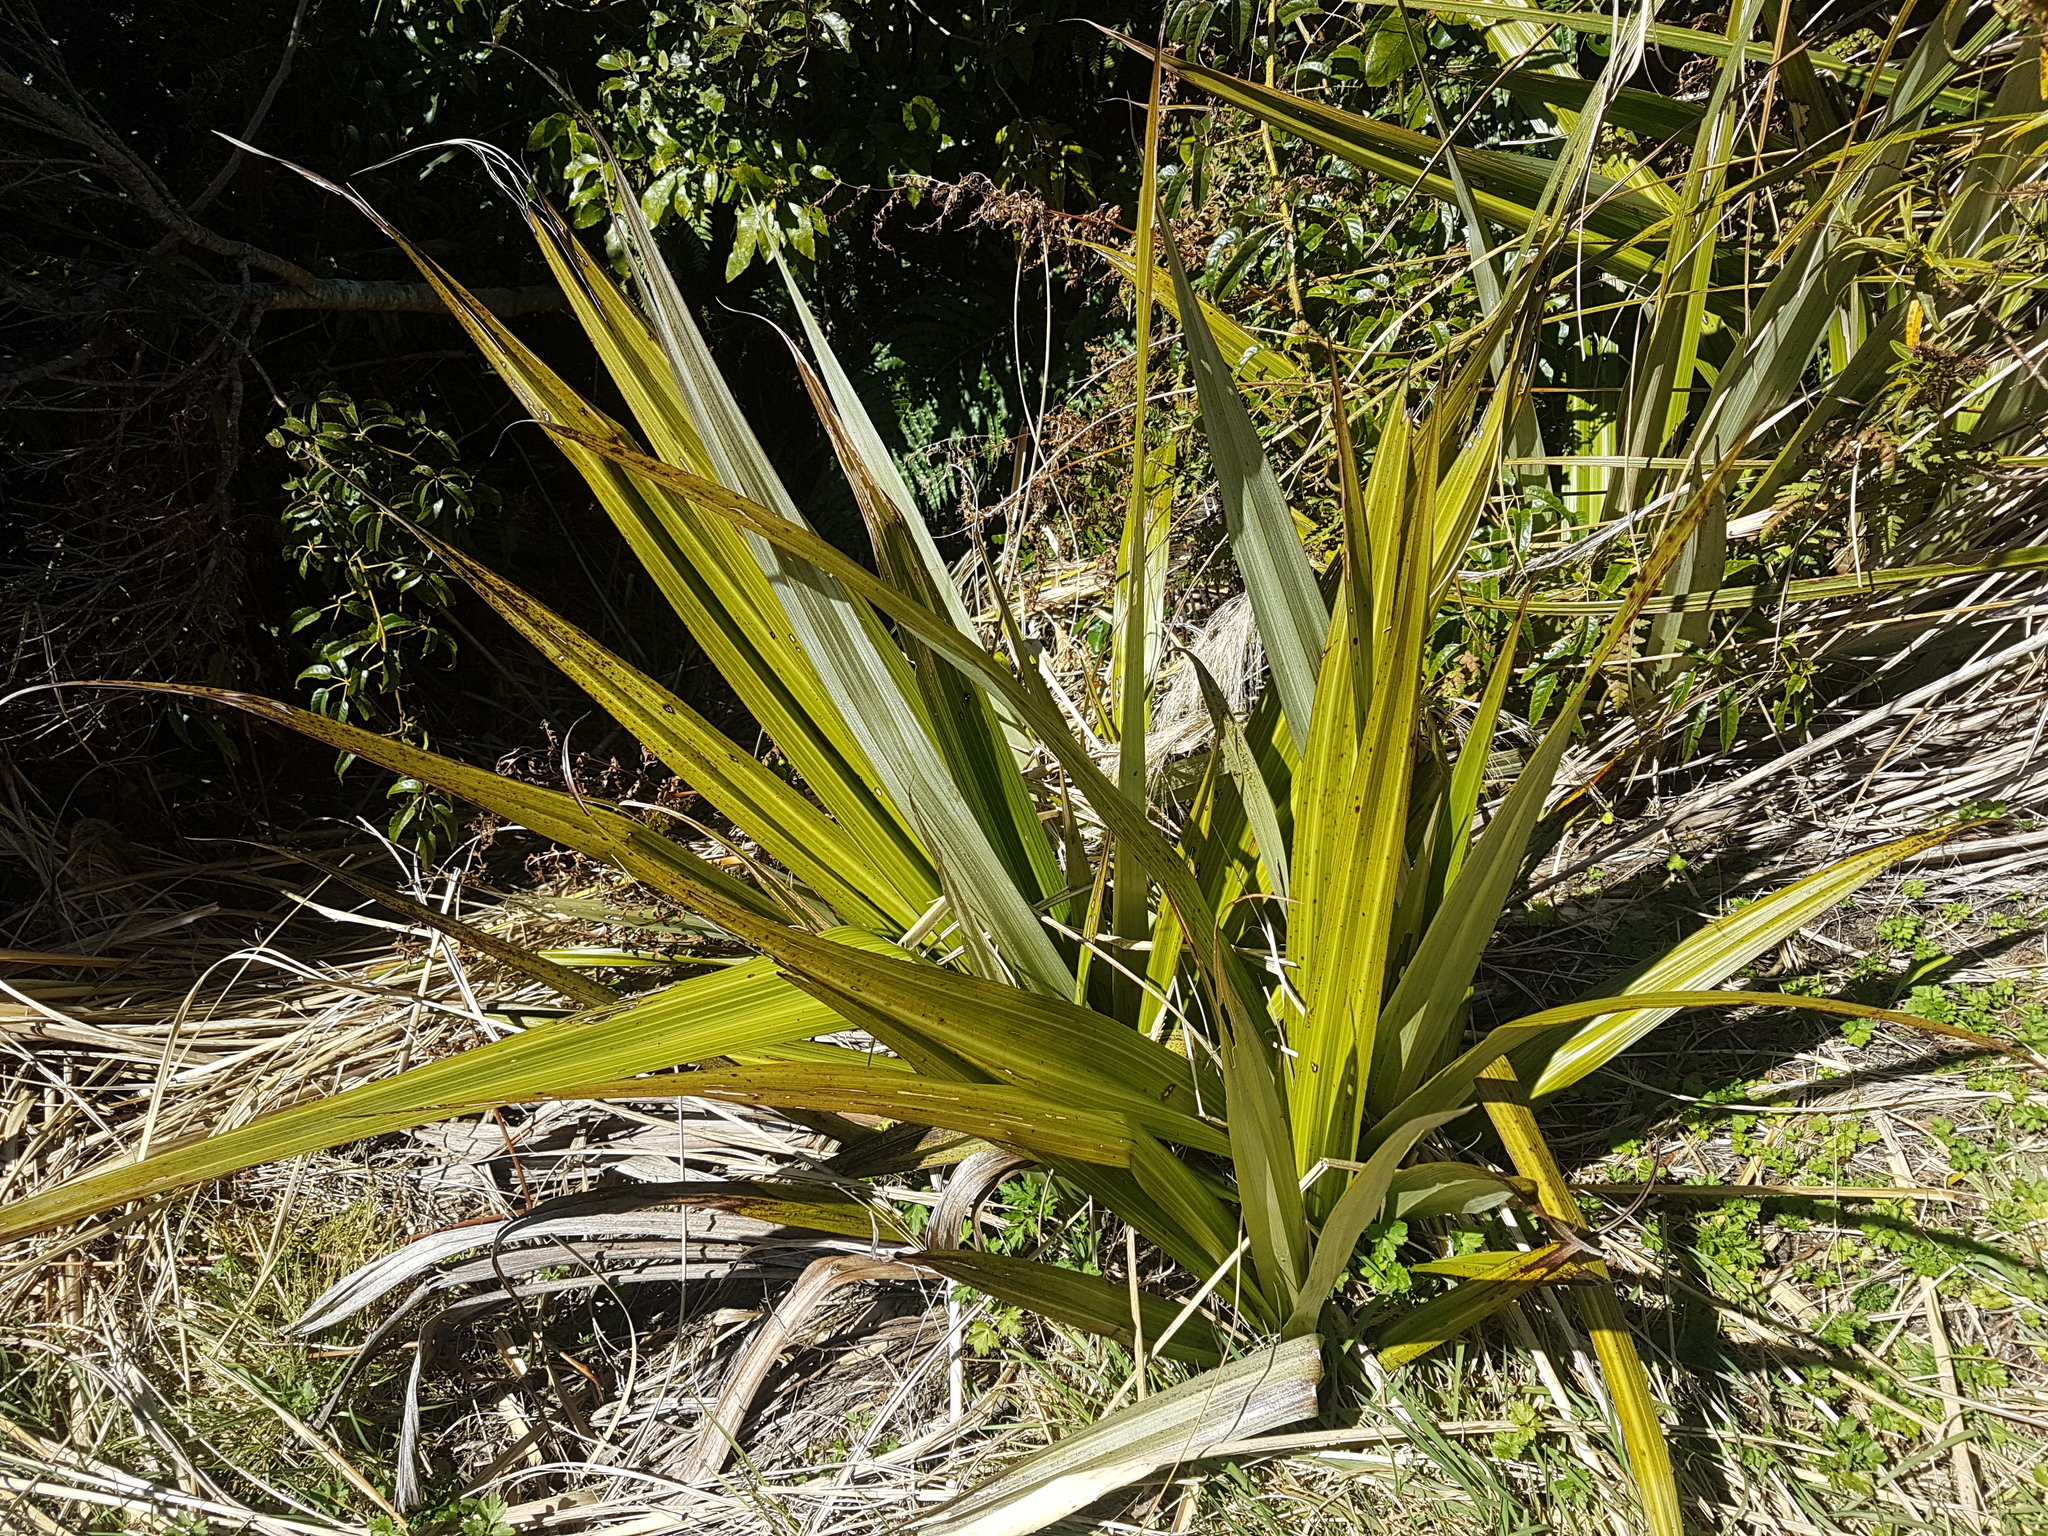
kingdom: Plantae
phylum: Tracheophyta
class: Liliopsida
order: Asparagales
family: Asteliaceae
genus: Astelia
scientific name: Astelia fragrans
